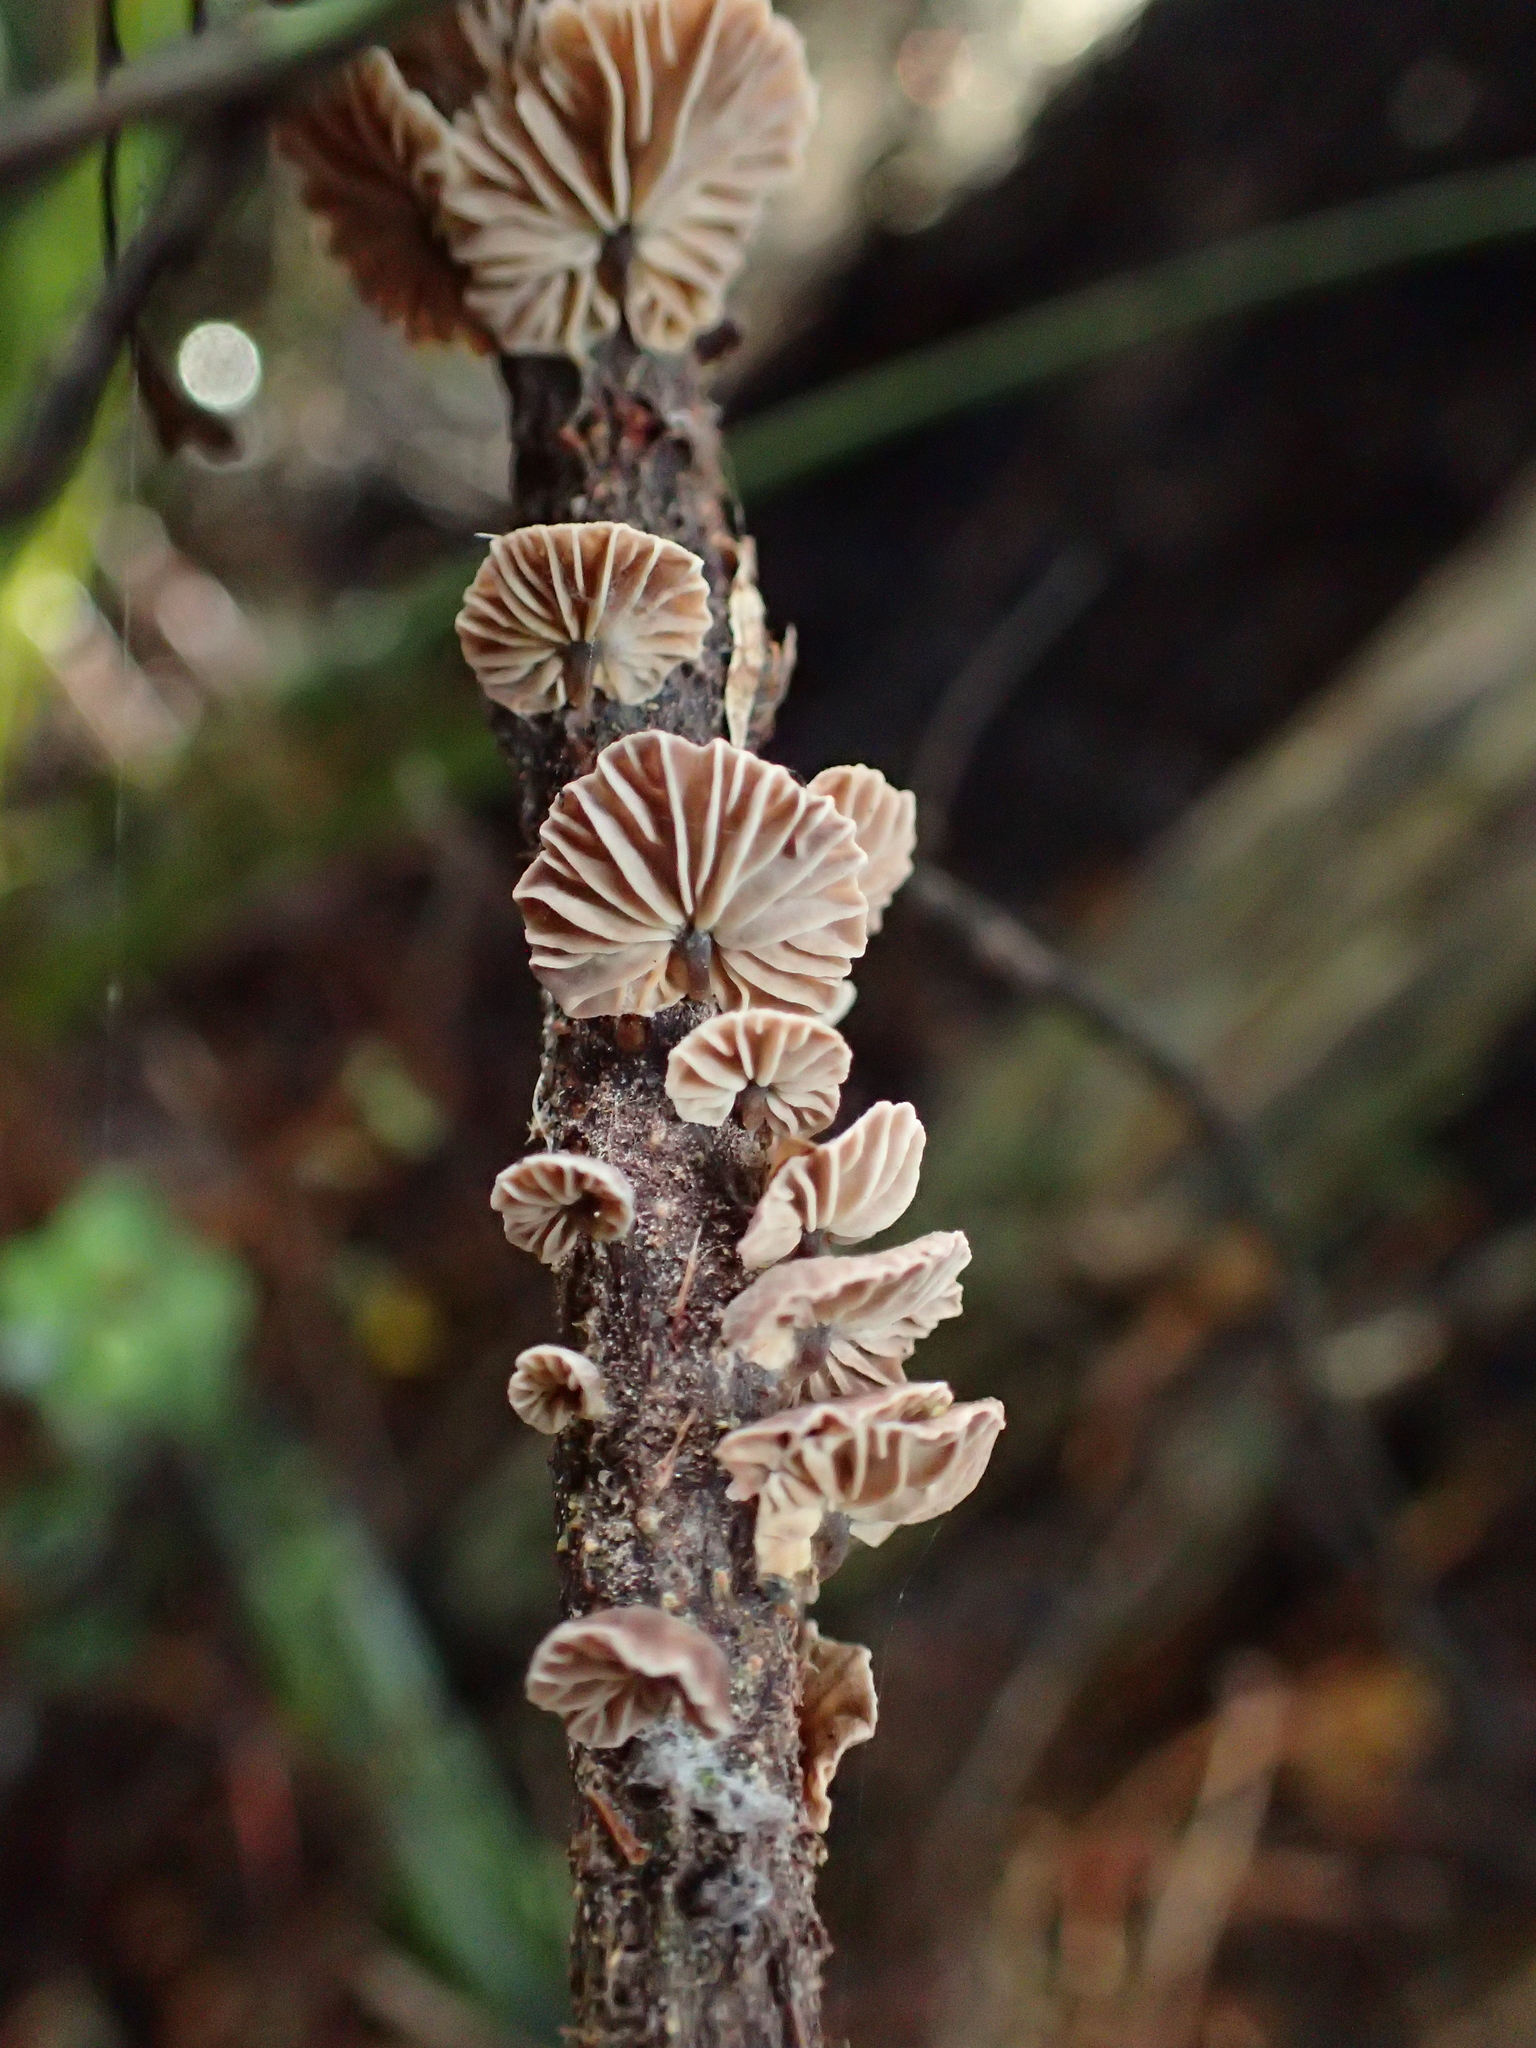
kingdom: Fungi
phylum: Basidiomycota
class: Agaricomycetes
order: Agaricales
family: Omphalotaceae
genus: Gymnopus
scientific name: Gymnopus imbricatus
